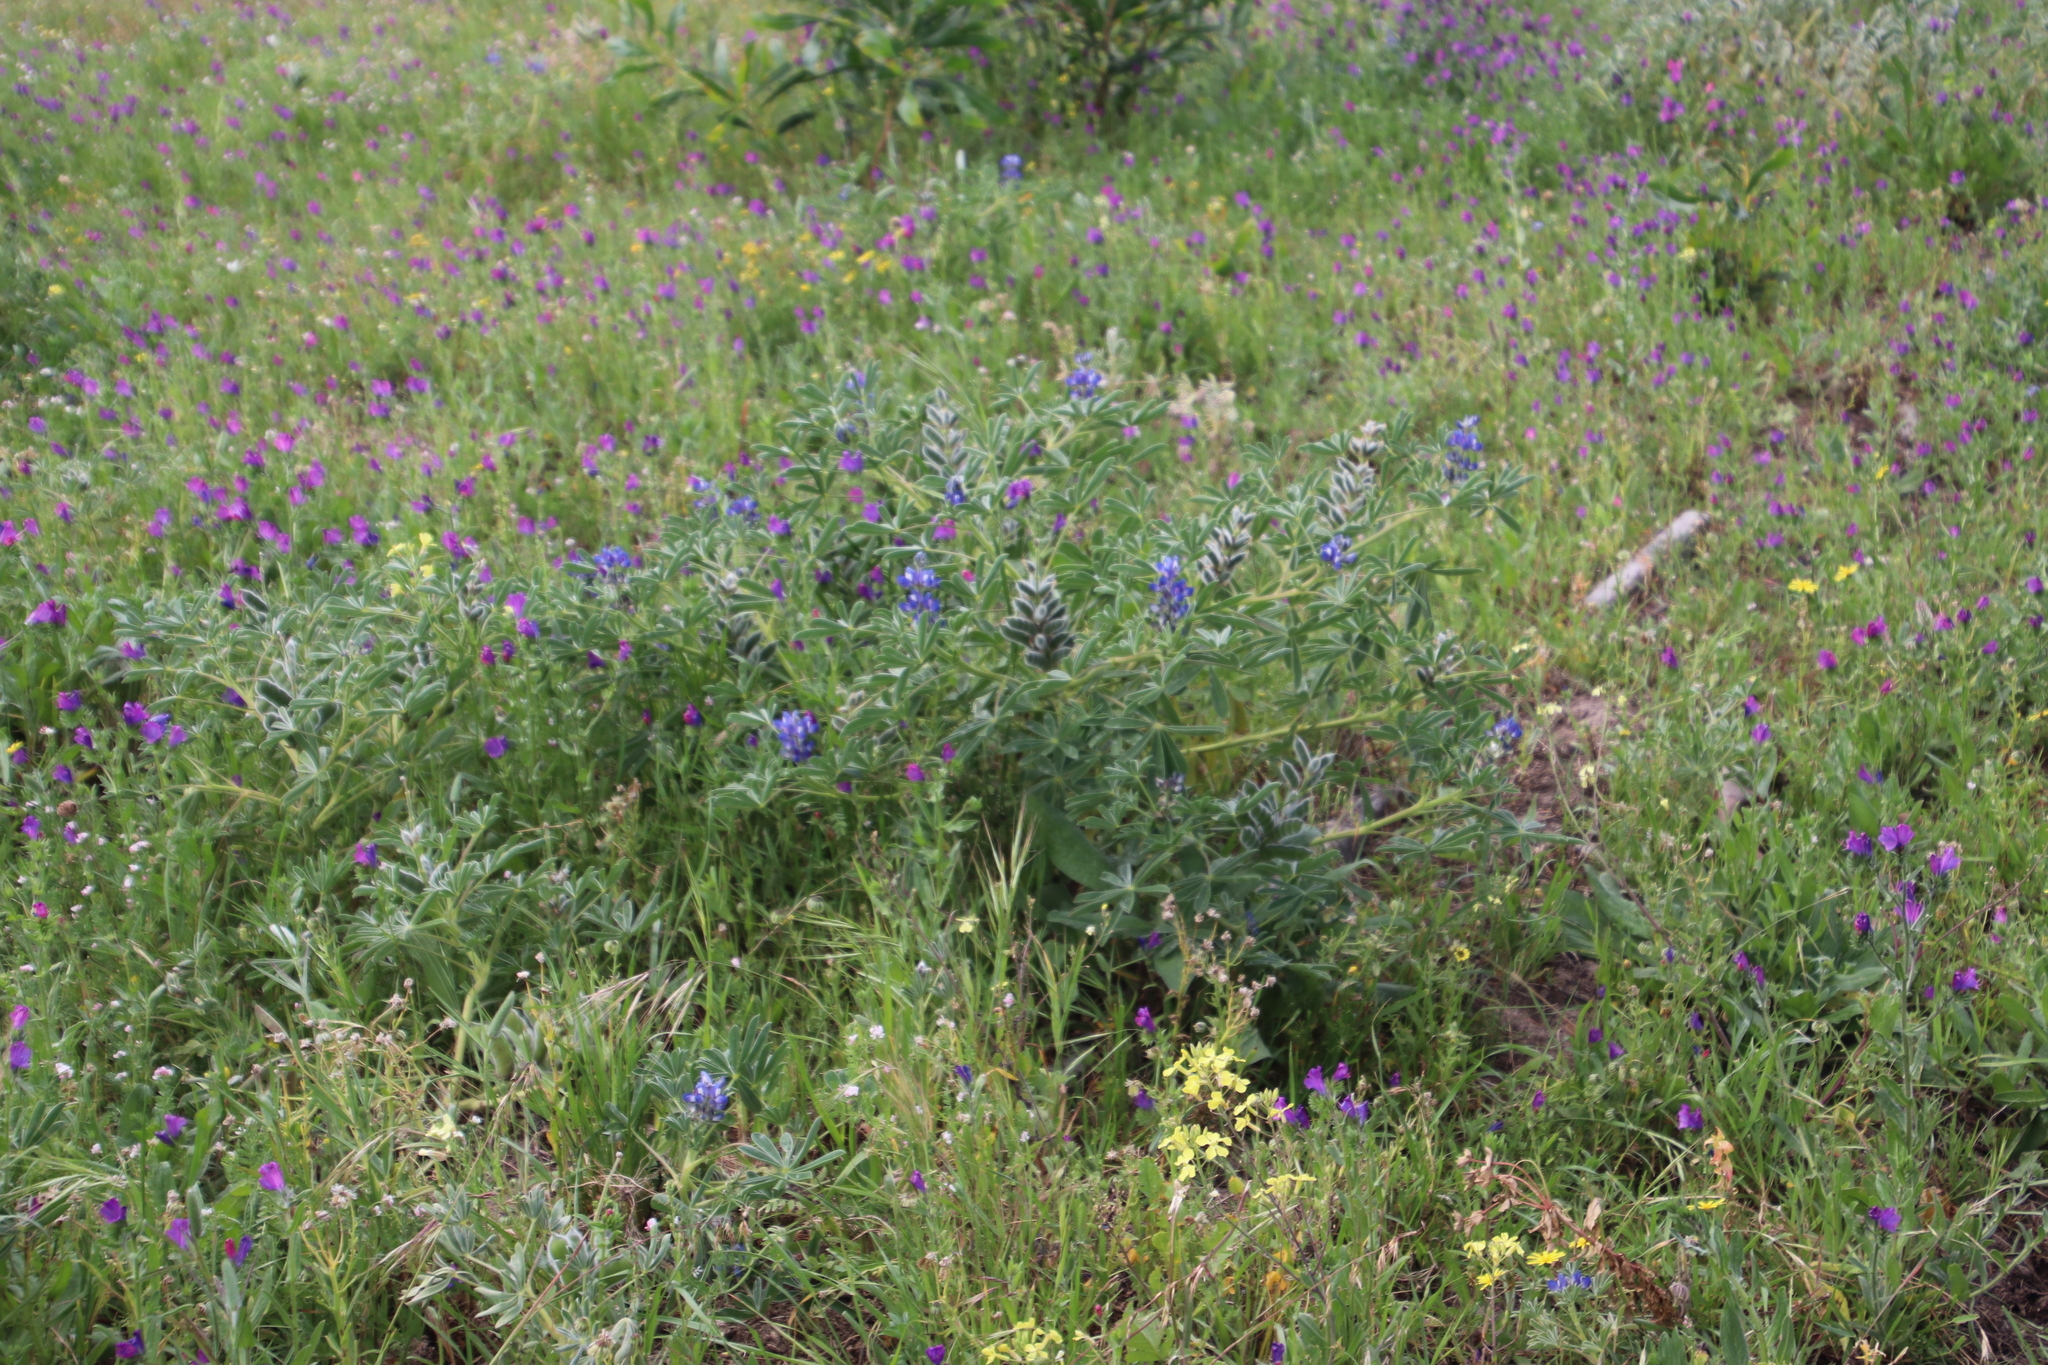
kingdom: Plantae
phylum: Tracheophyta
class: Magnoliopsida
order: Fabales
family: Fabaceae
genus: Lupinus
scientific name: Lupinus cosentinii
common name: Hairy blue lupin
